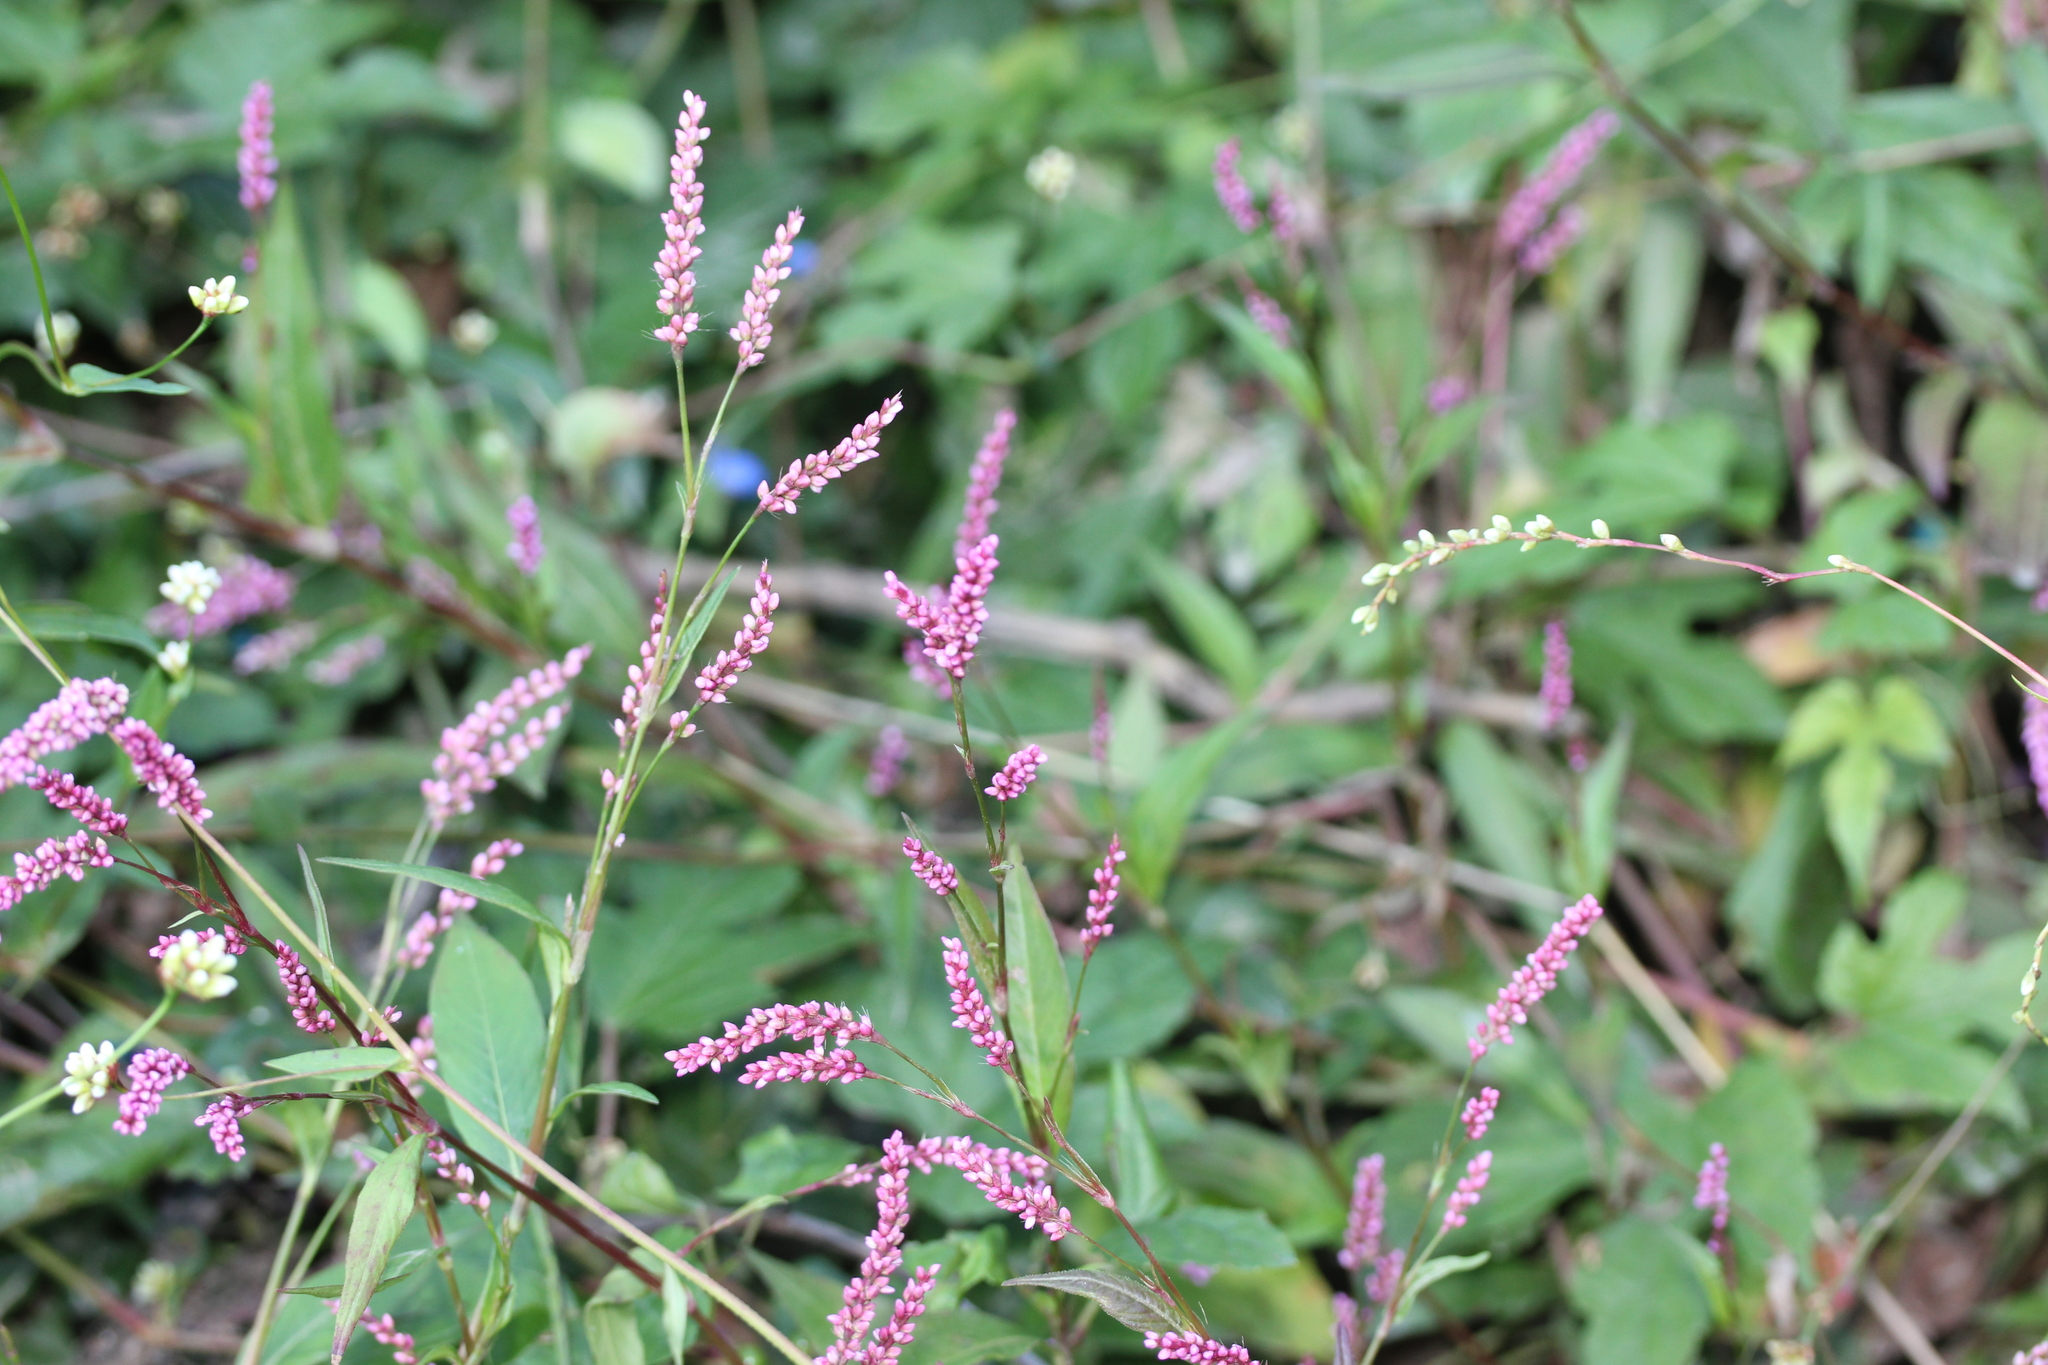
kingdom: Plantae
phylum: Tracheophyta
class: Magnoliopsida
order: Caryophyllales
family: Polygonaceae
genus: Persicaria
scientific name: Persicaria longiseta
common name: Bristly lady's-thumb
